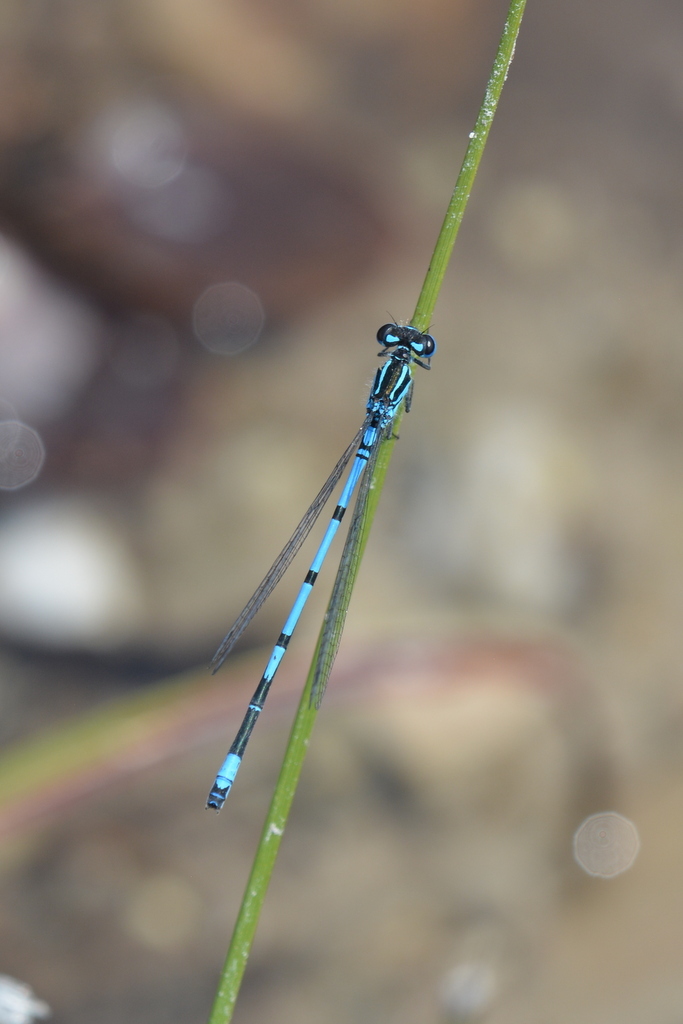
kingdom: Animalia
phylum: Arthropoda
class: Insecta
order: Odonata
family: Coenagrionidae
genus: Coenagrion
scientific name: Coenagrion puella
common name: Azure damselfly
